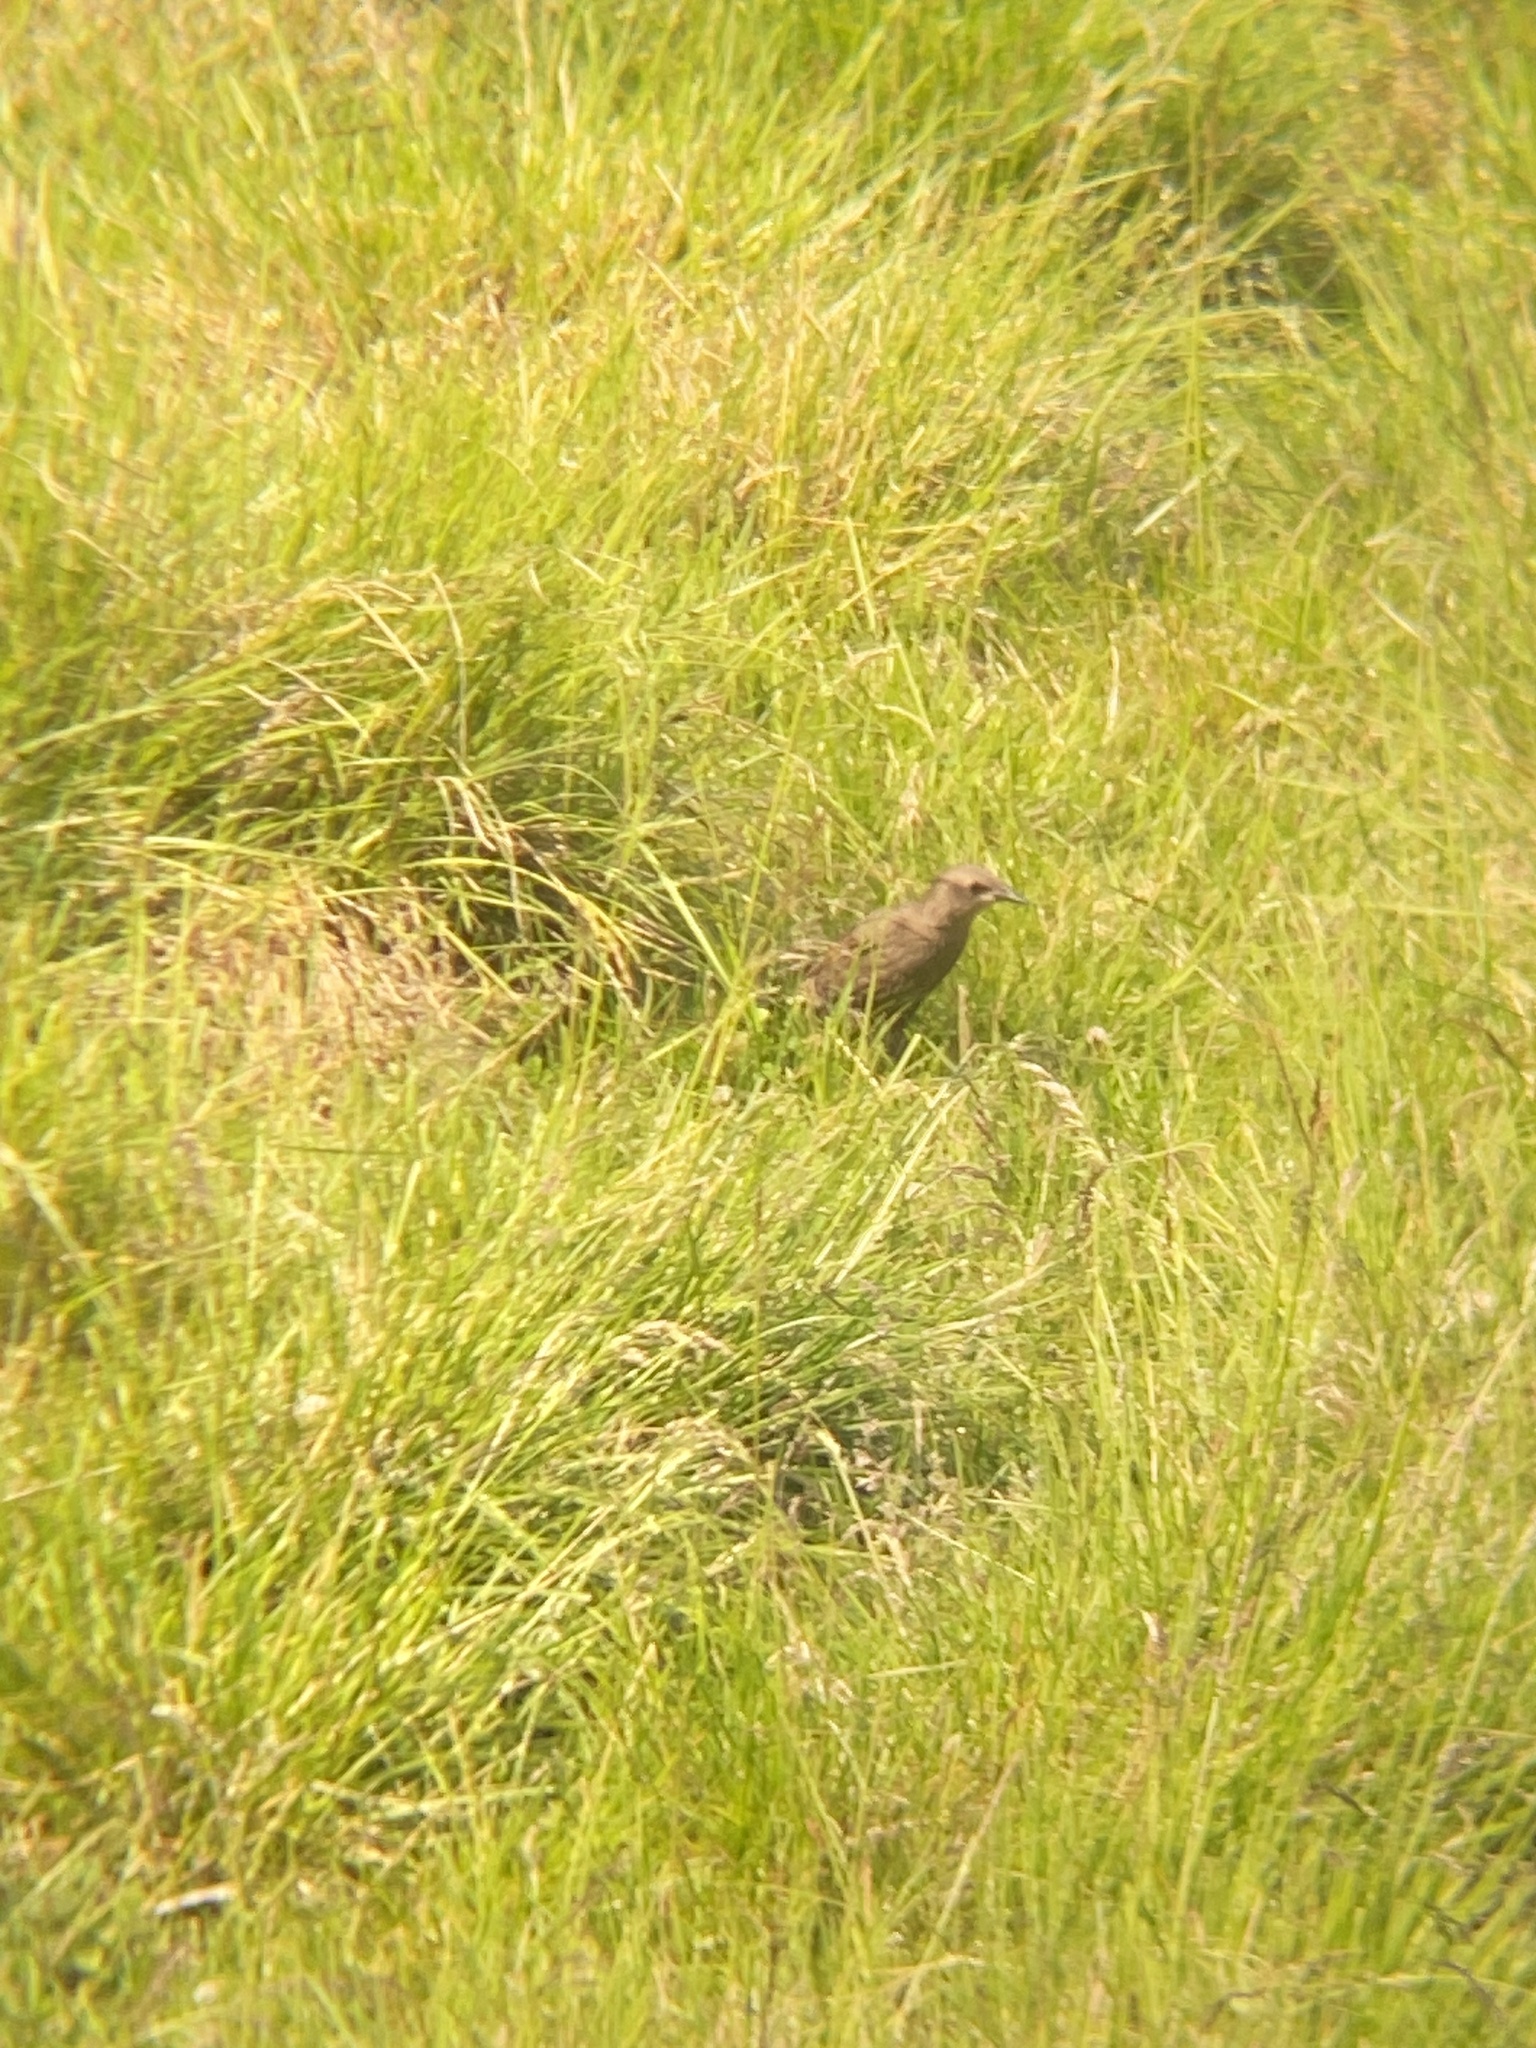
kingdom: Animalia
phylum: Chordata
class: Aves
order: Passeriformes
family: Sturnidae
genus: Sturnus
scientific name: Sturnus vulgaris
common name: Common starling
